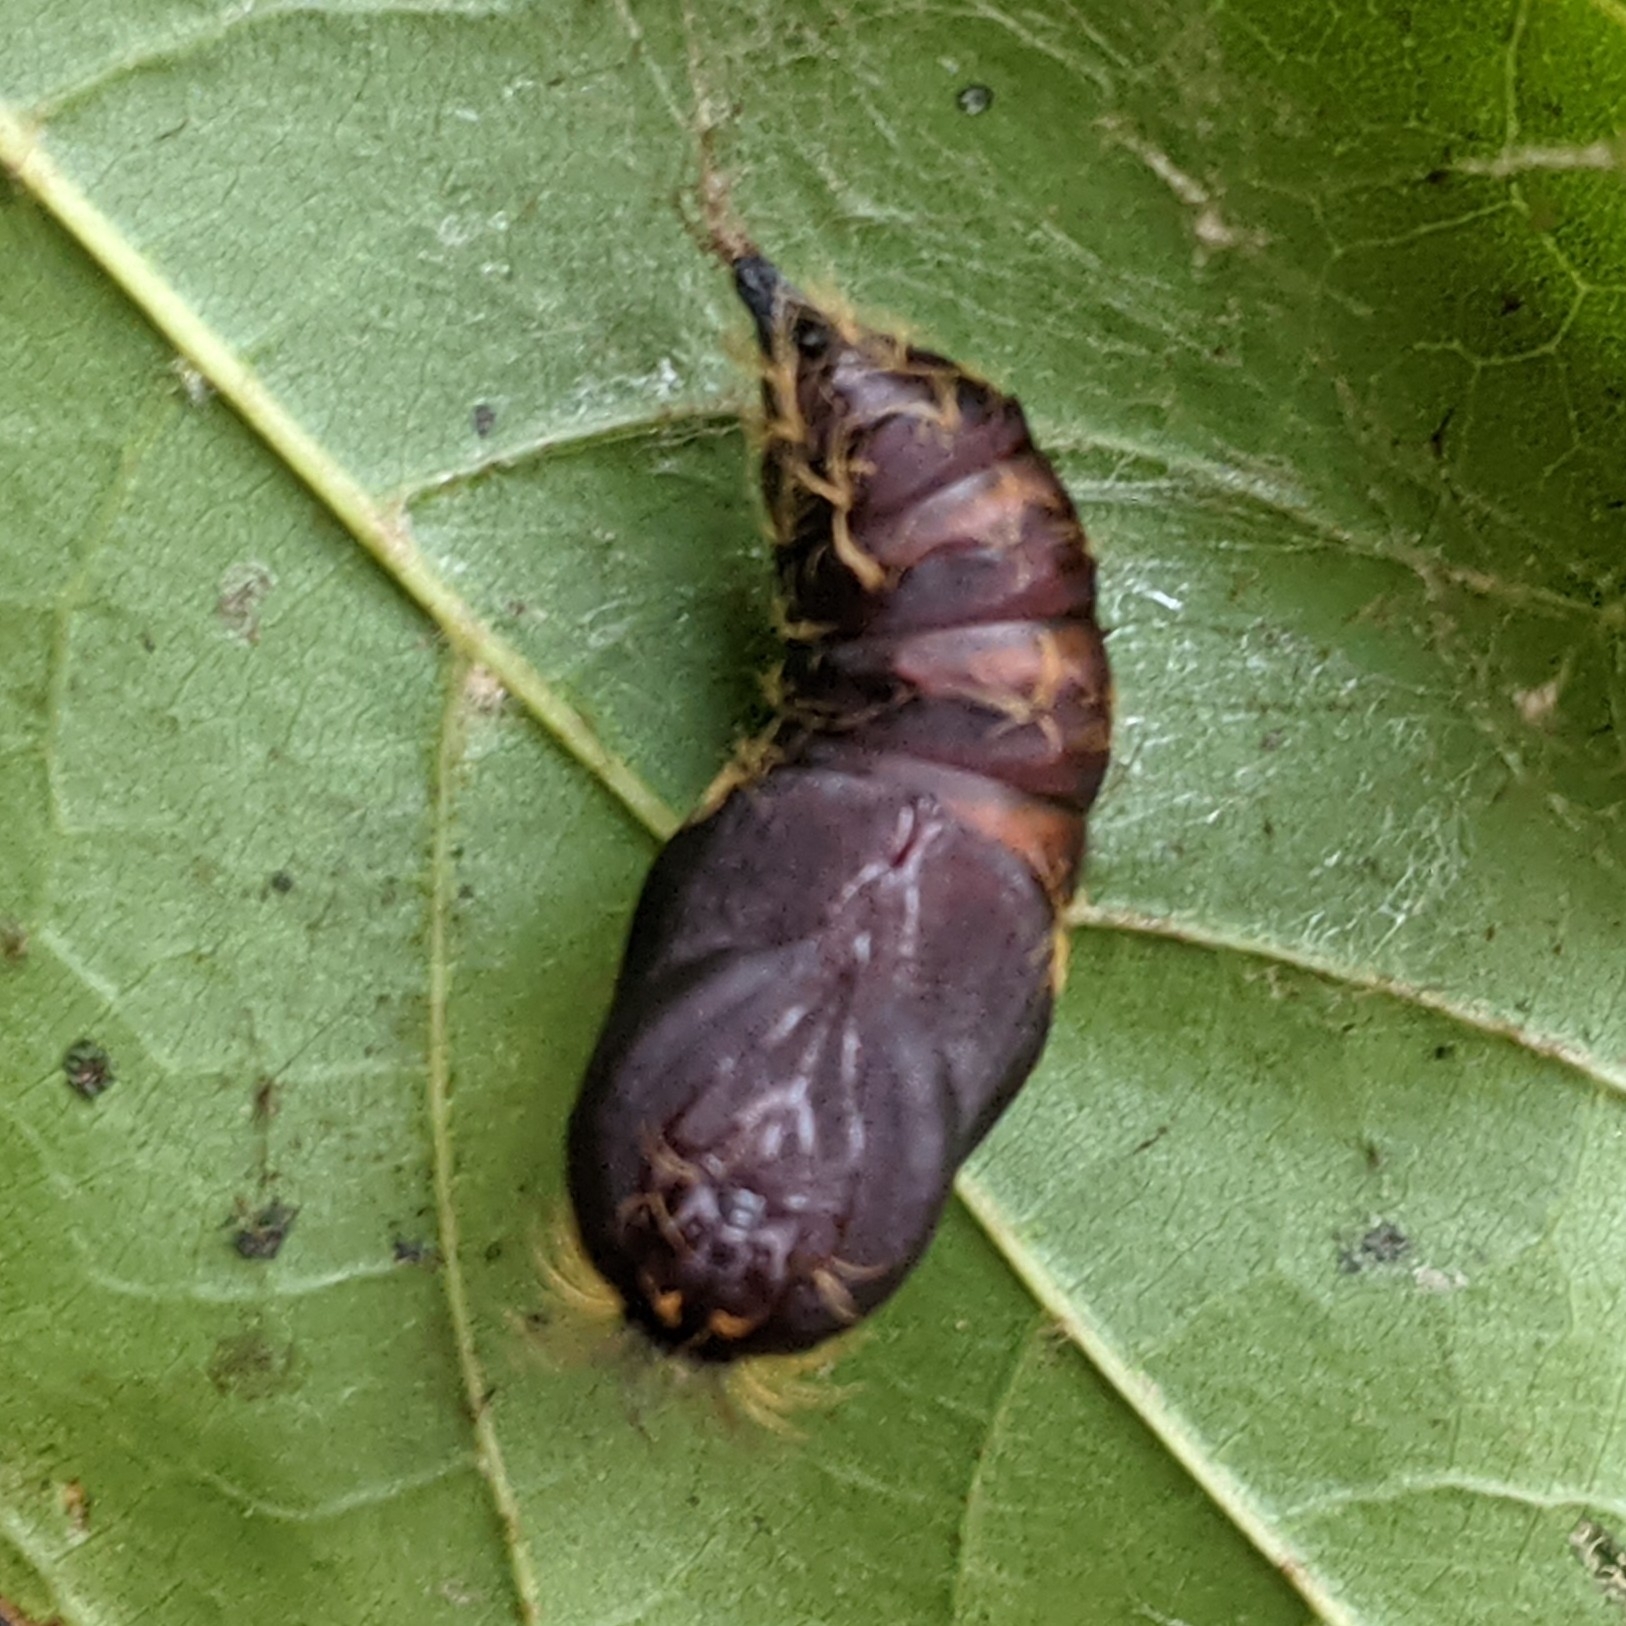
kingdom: Animalia
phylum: Arthropoda
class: Insecta
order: Lepidoptera
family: Erebidae
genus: Lymantria
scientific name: Lymantria dispar
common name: Gypsy moth
